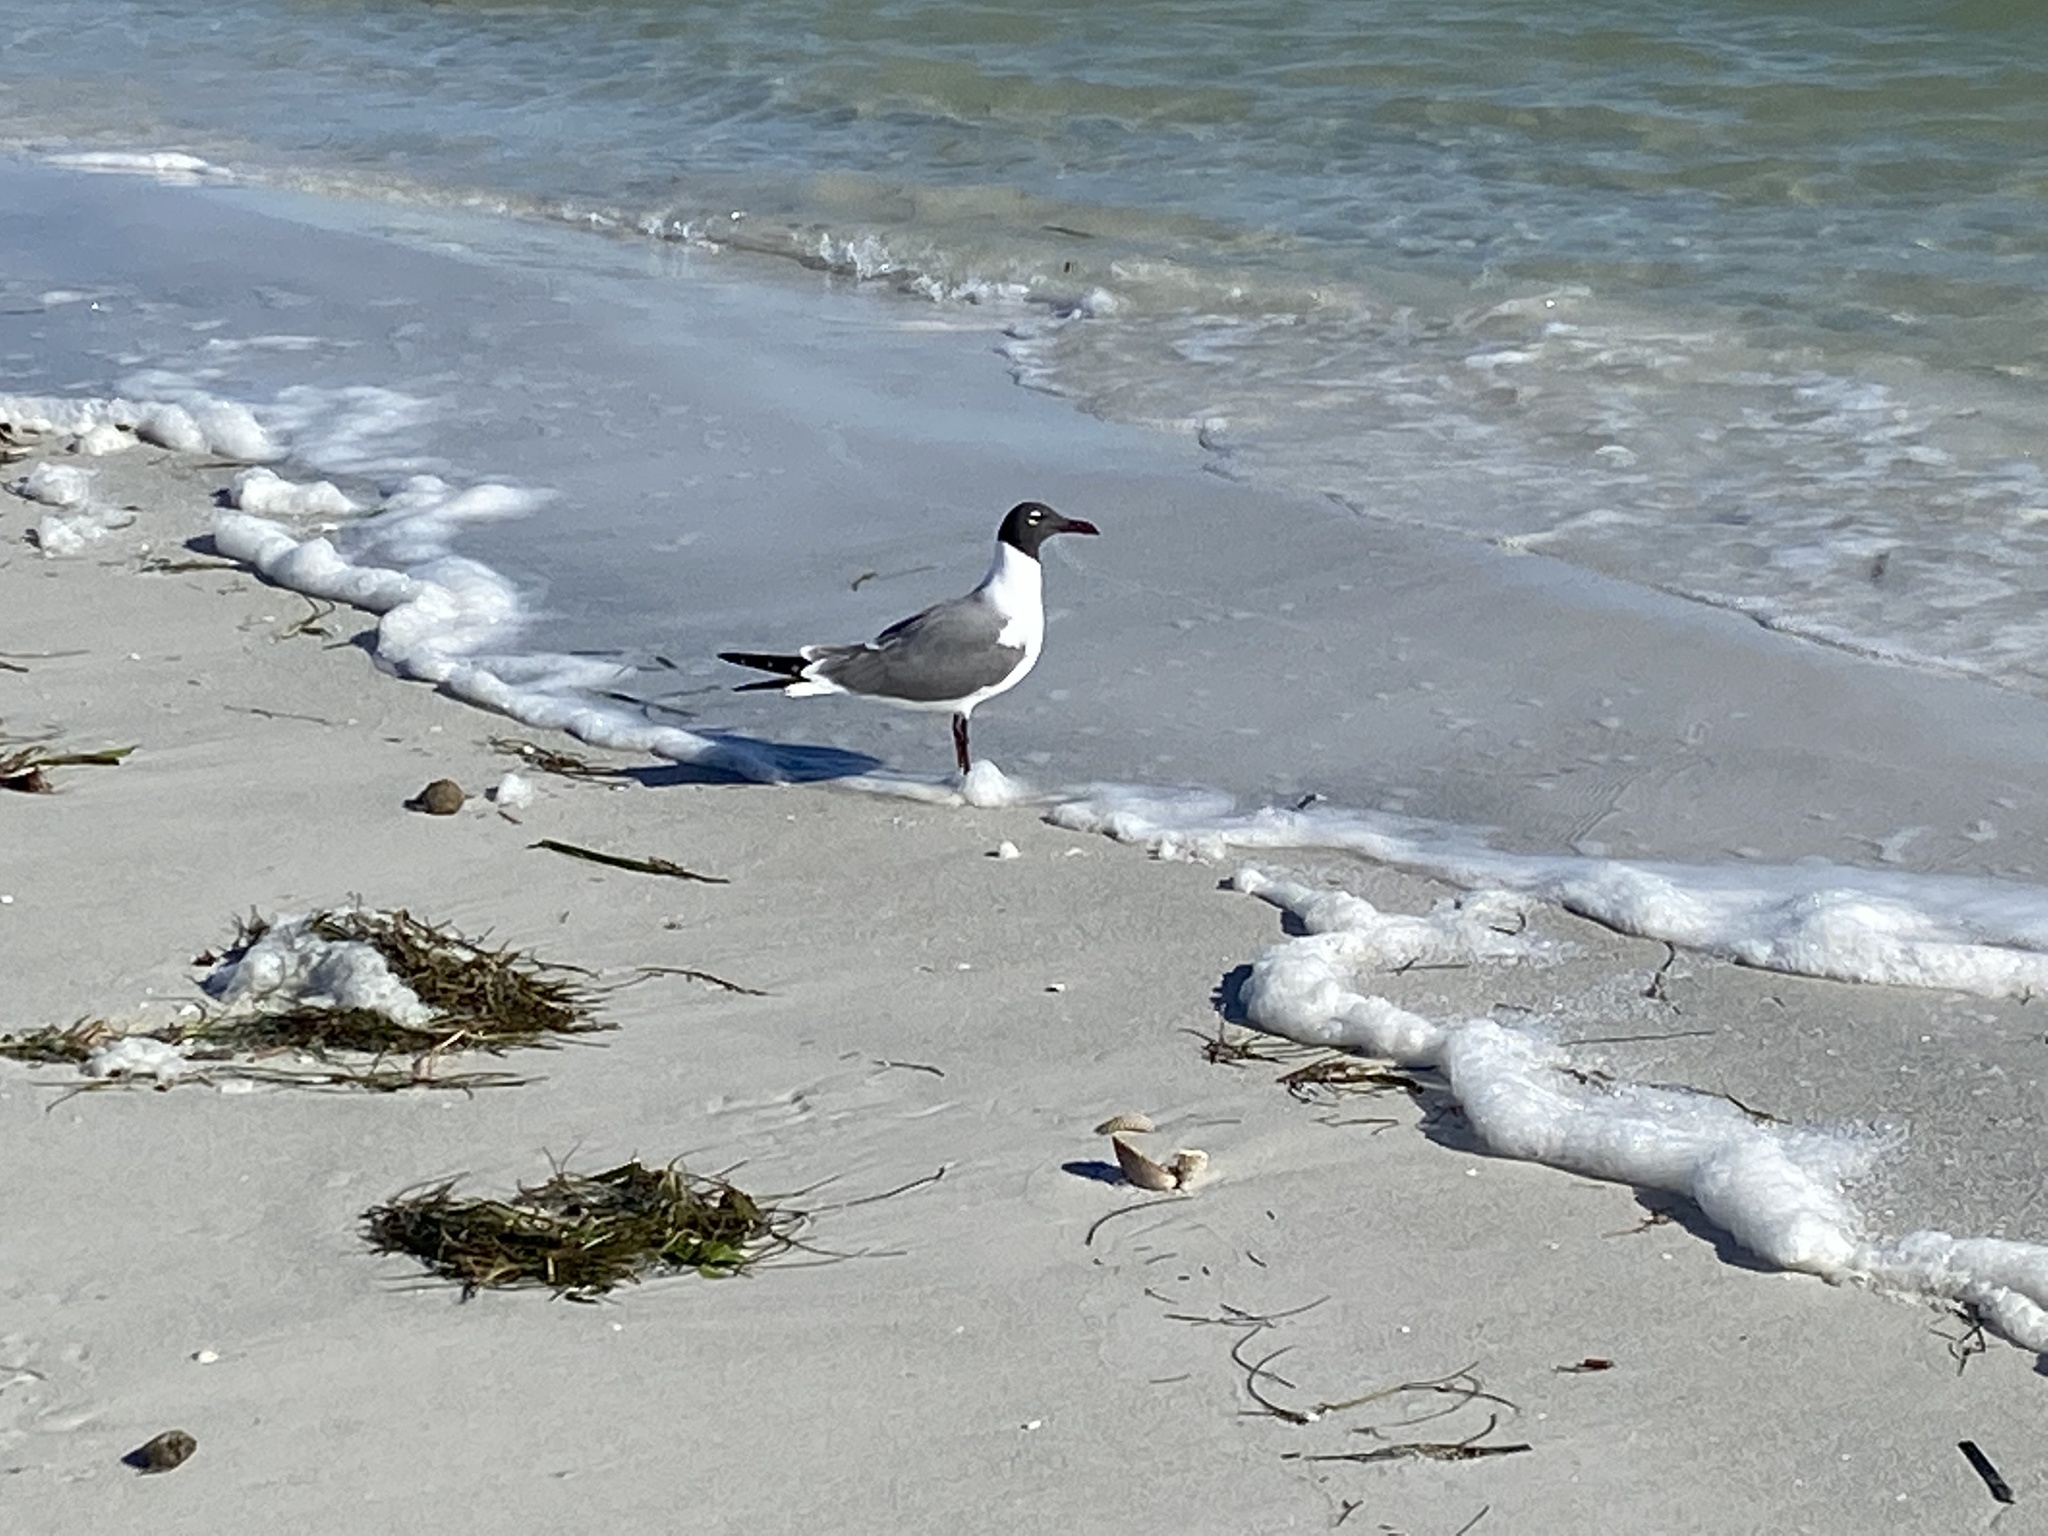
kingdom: Animalia
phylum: Chordata
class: Aves
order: Charadriiformes
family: Laridae
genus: Leucophaeus
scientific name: Leucophaeus atricilla
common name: Laughing gull
